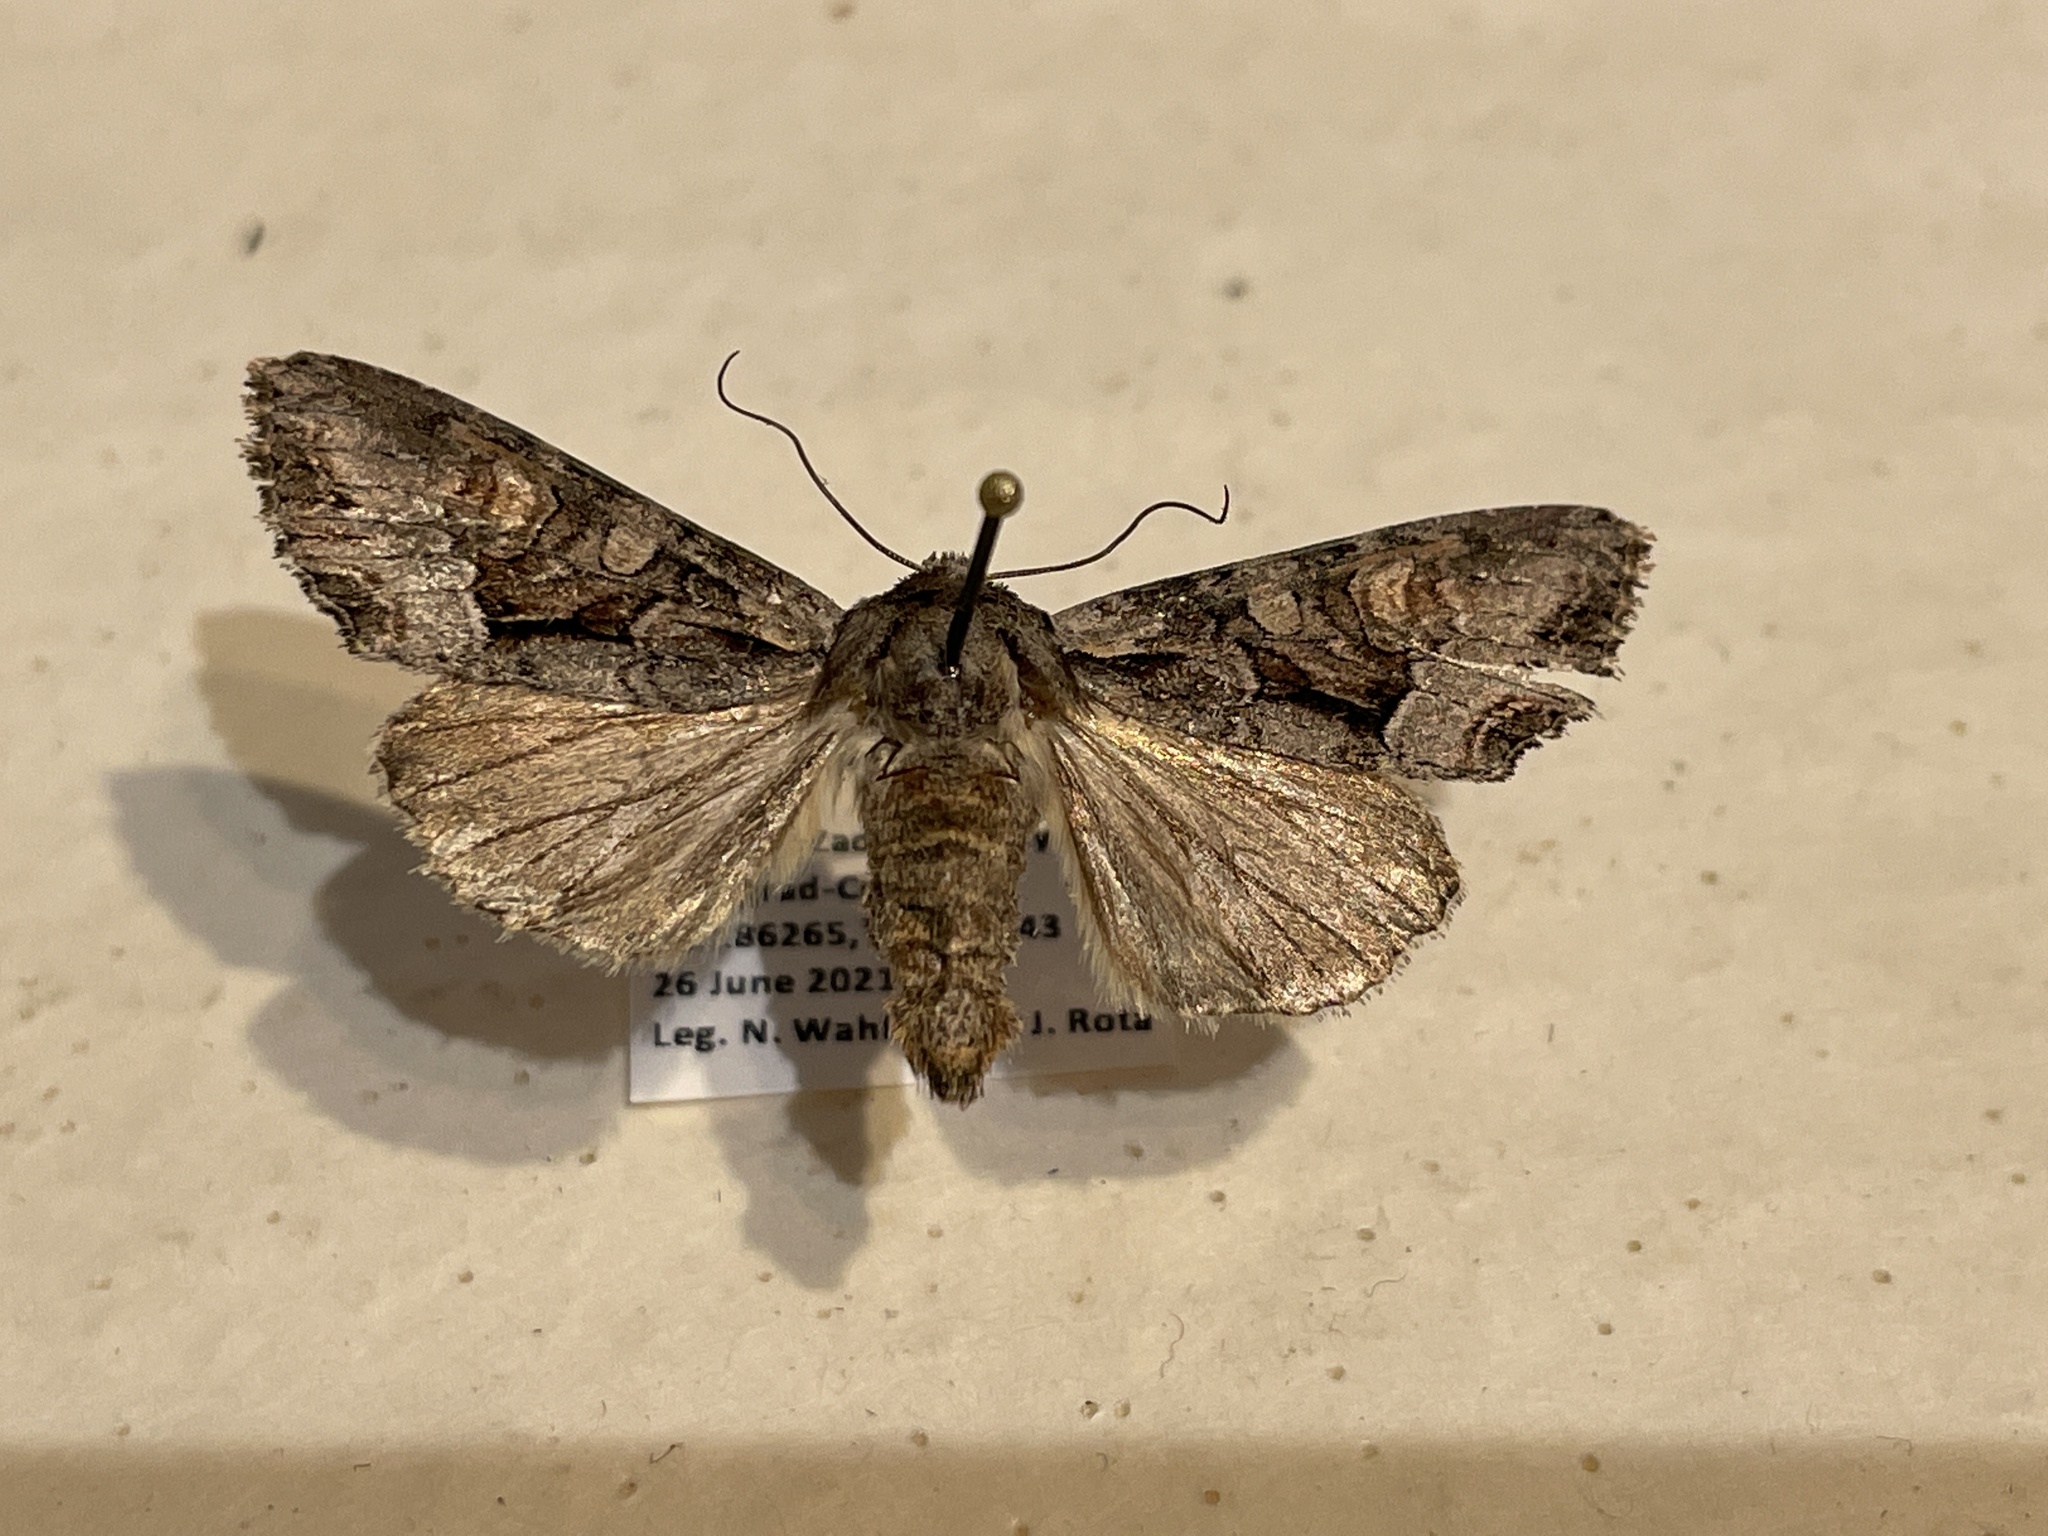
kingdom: Animalia
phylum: Arthropoda
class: Insecta
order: Lepidoptera
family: Noctuidae
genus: Lacanobia
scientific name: Lacanobia w-latinum
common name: Light brocade
